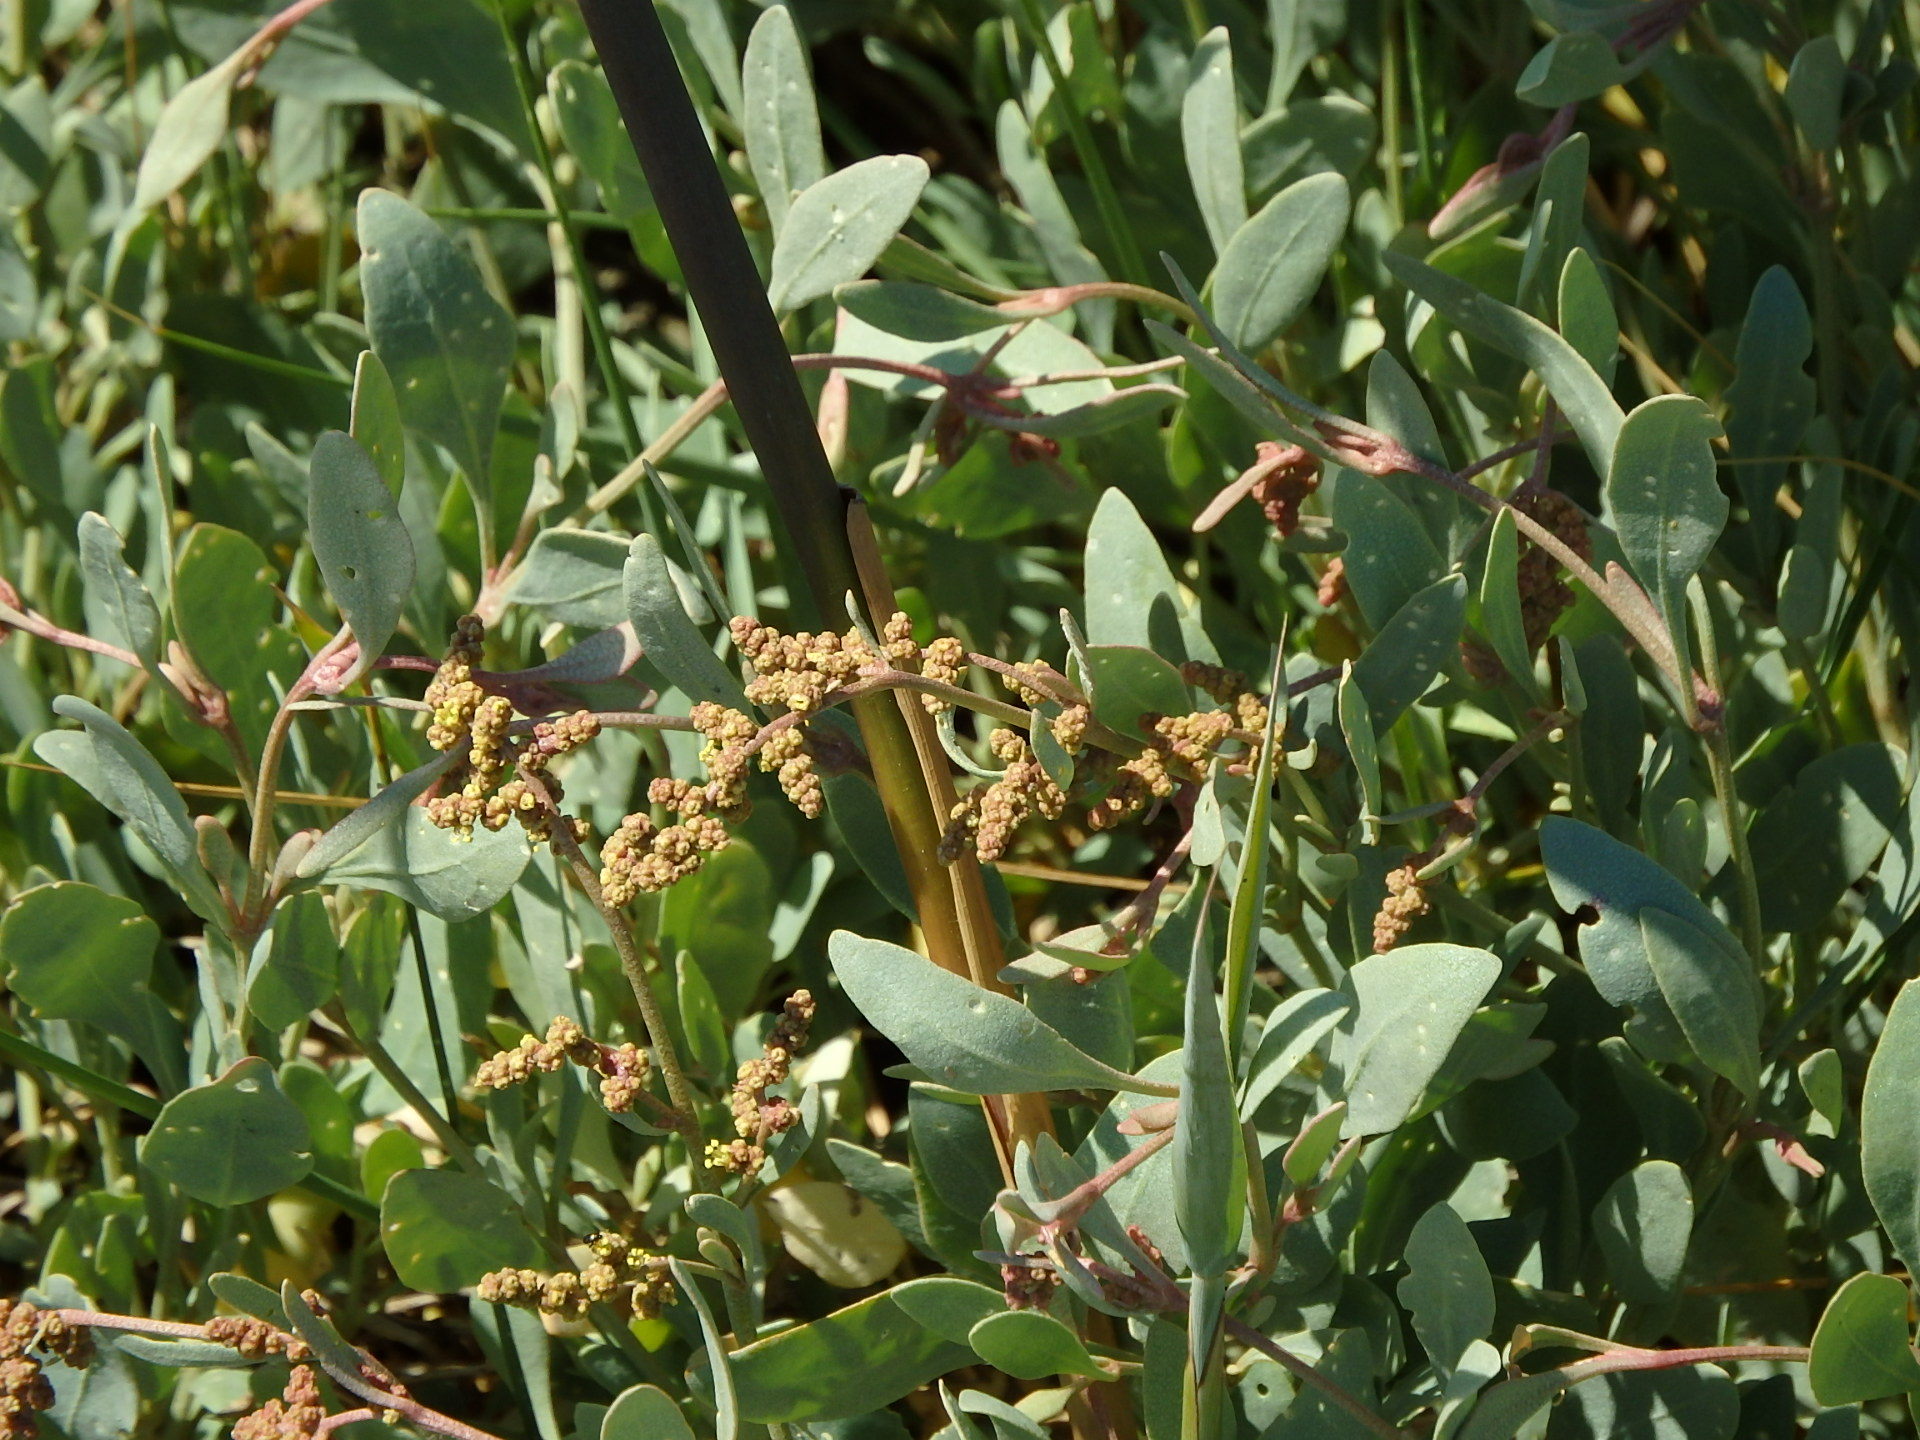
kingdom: Plantae
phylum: Tracheophyta
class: Magnoliopsida
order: Caryophyllales
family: Amaranthaceae
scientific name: Amaranthaceae
